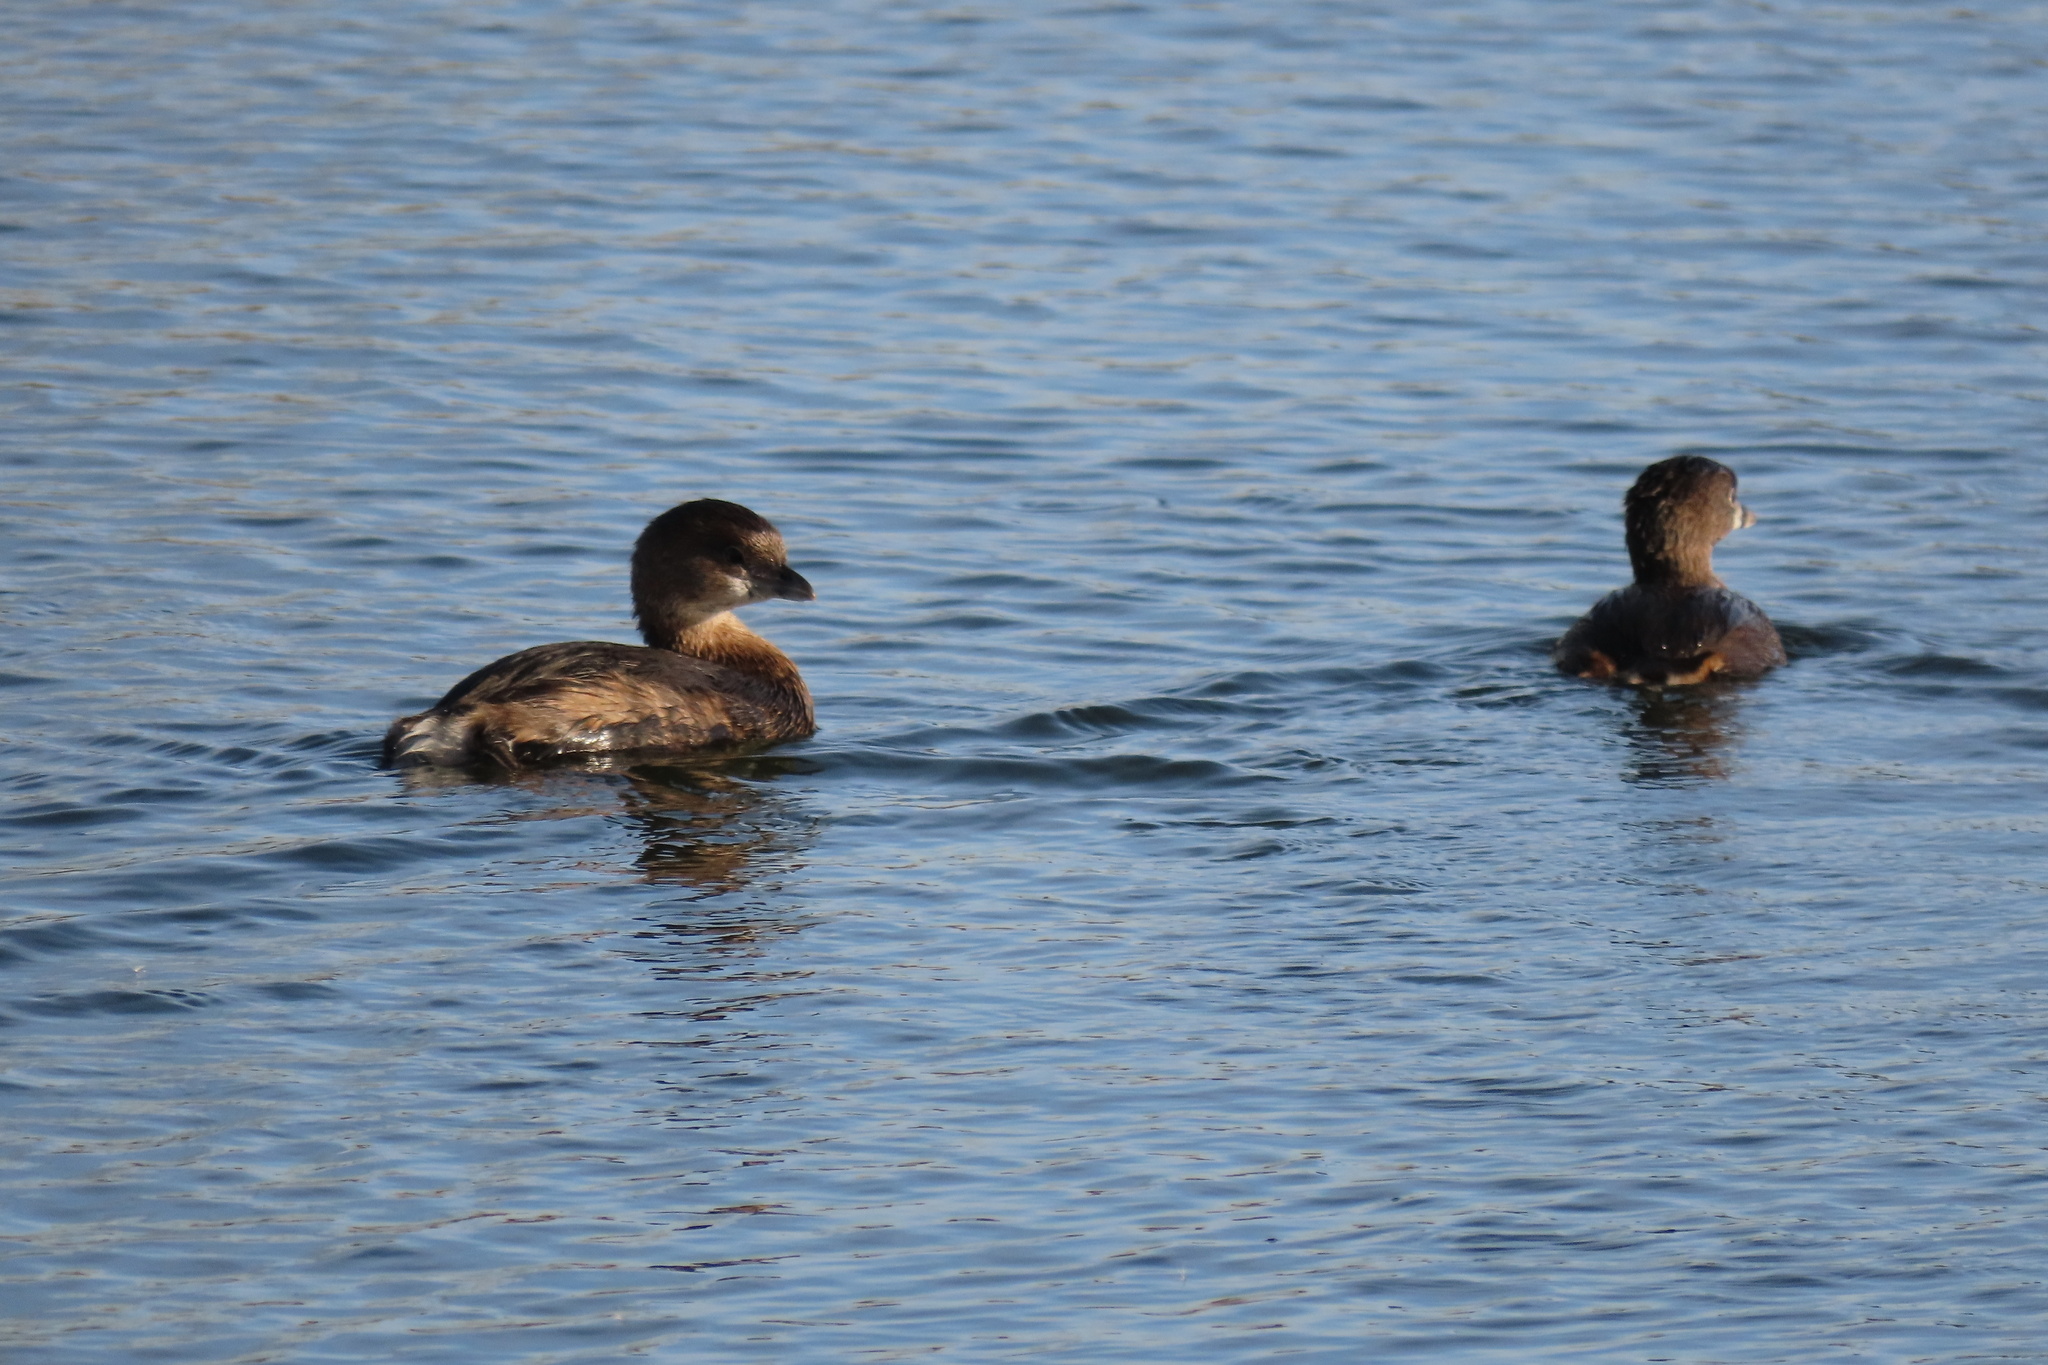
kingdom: Animalia
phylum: Chordata
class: Aves
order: Podicipediformes
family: Podicipedidae
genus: Podilymbus
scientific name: Podilymbus podiceps
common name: Pied-billed grebe
